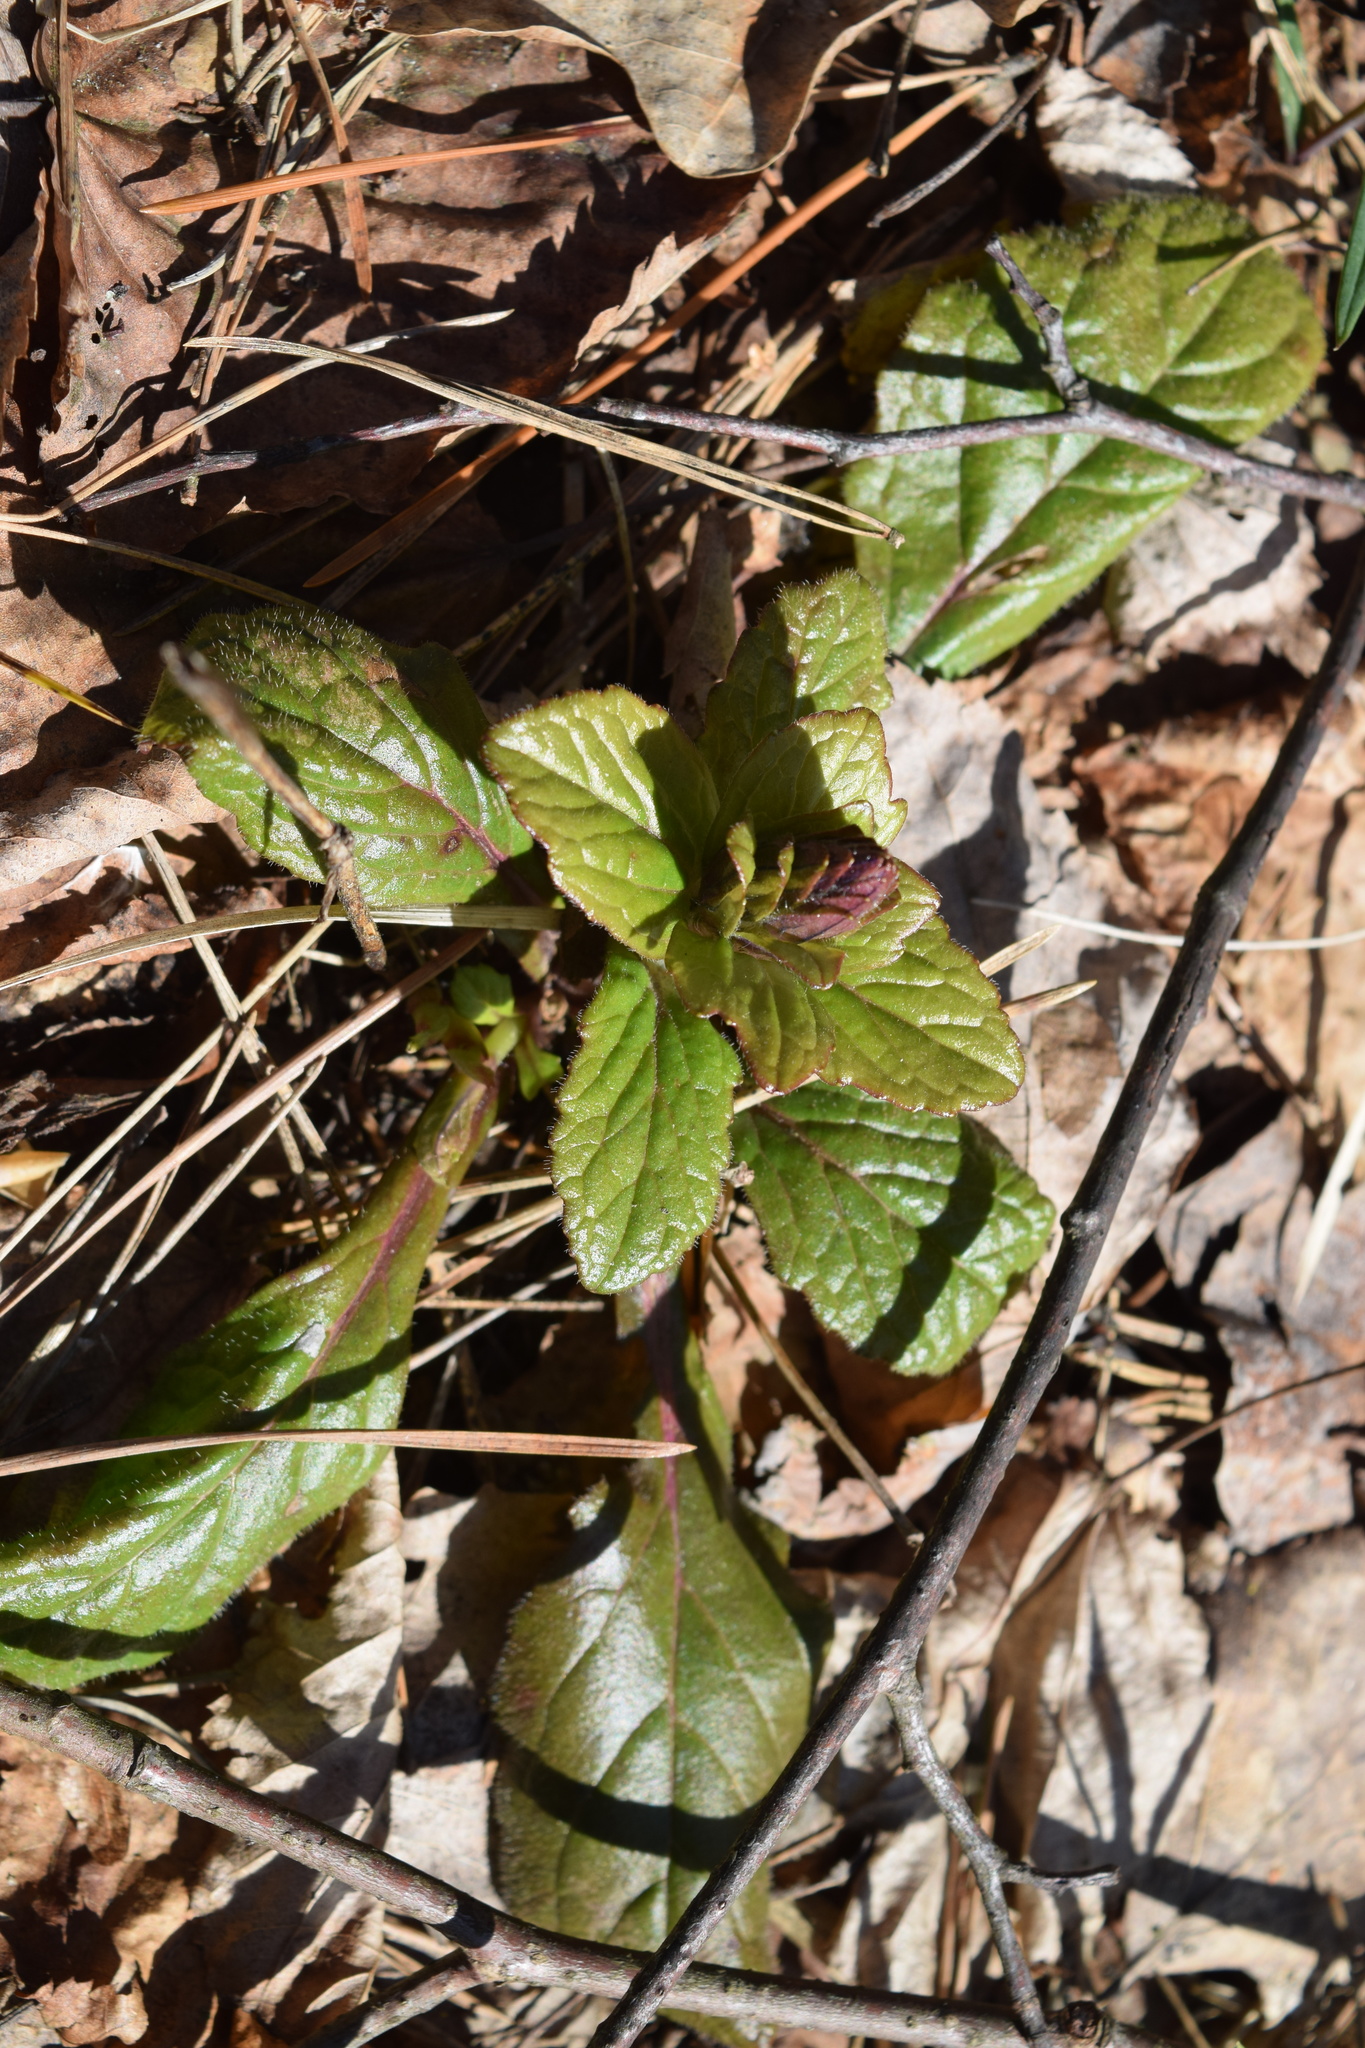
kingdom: Plantae
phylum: Tracheophyta
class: Magnoliopsida
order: Lamiales
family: Lamiaceae
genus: Ajuga
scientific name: Ajuga reptans
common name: Bugle
